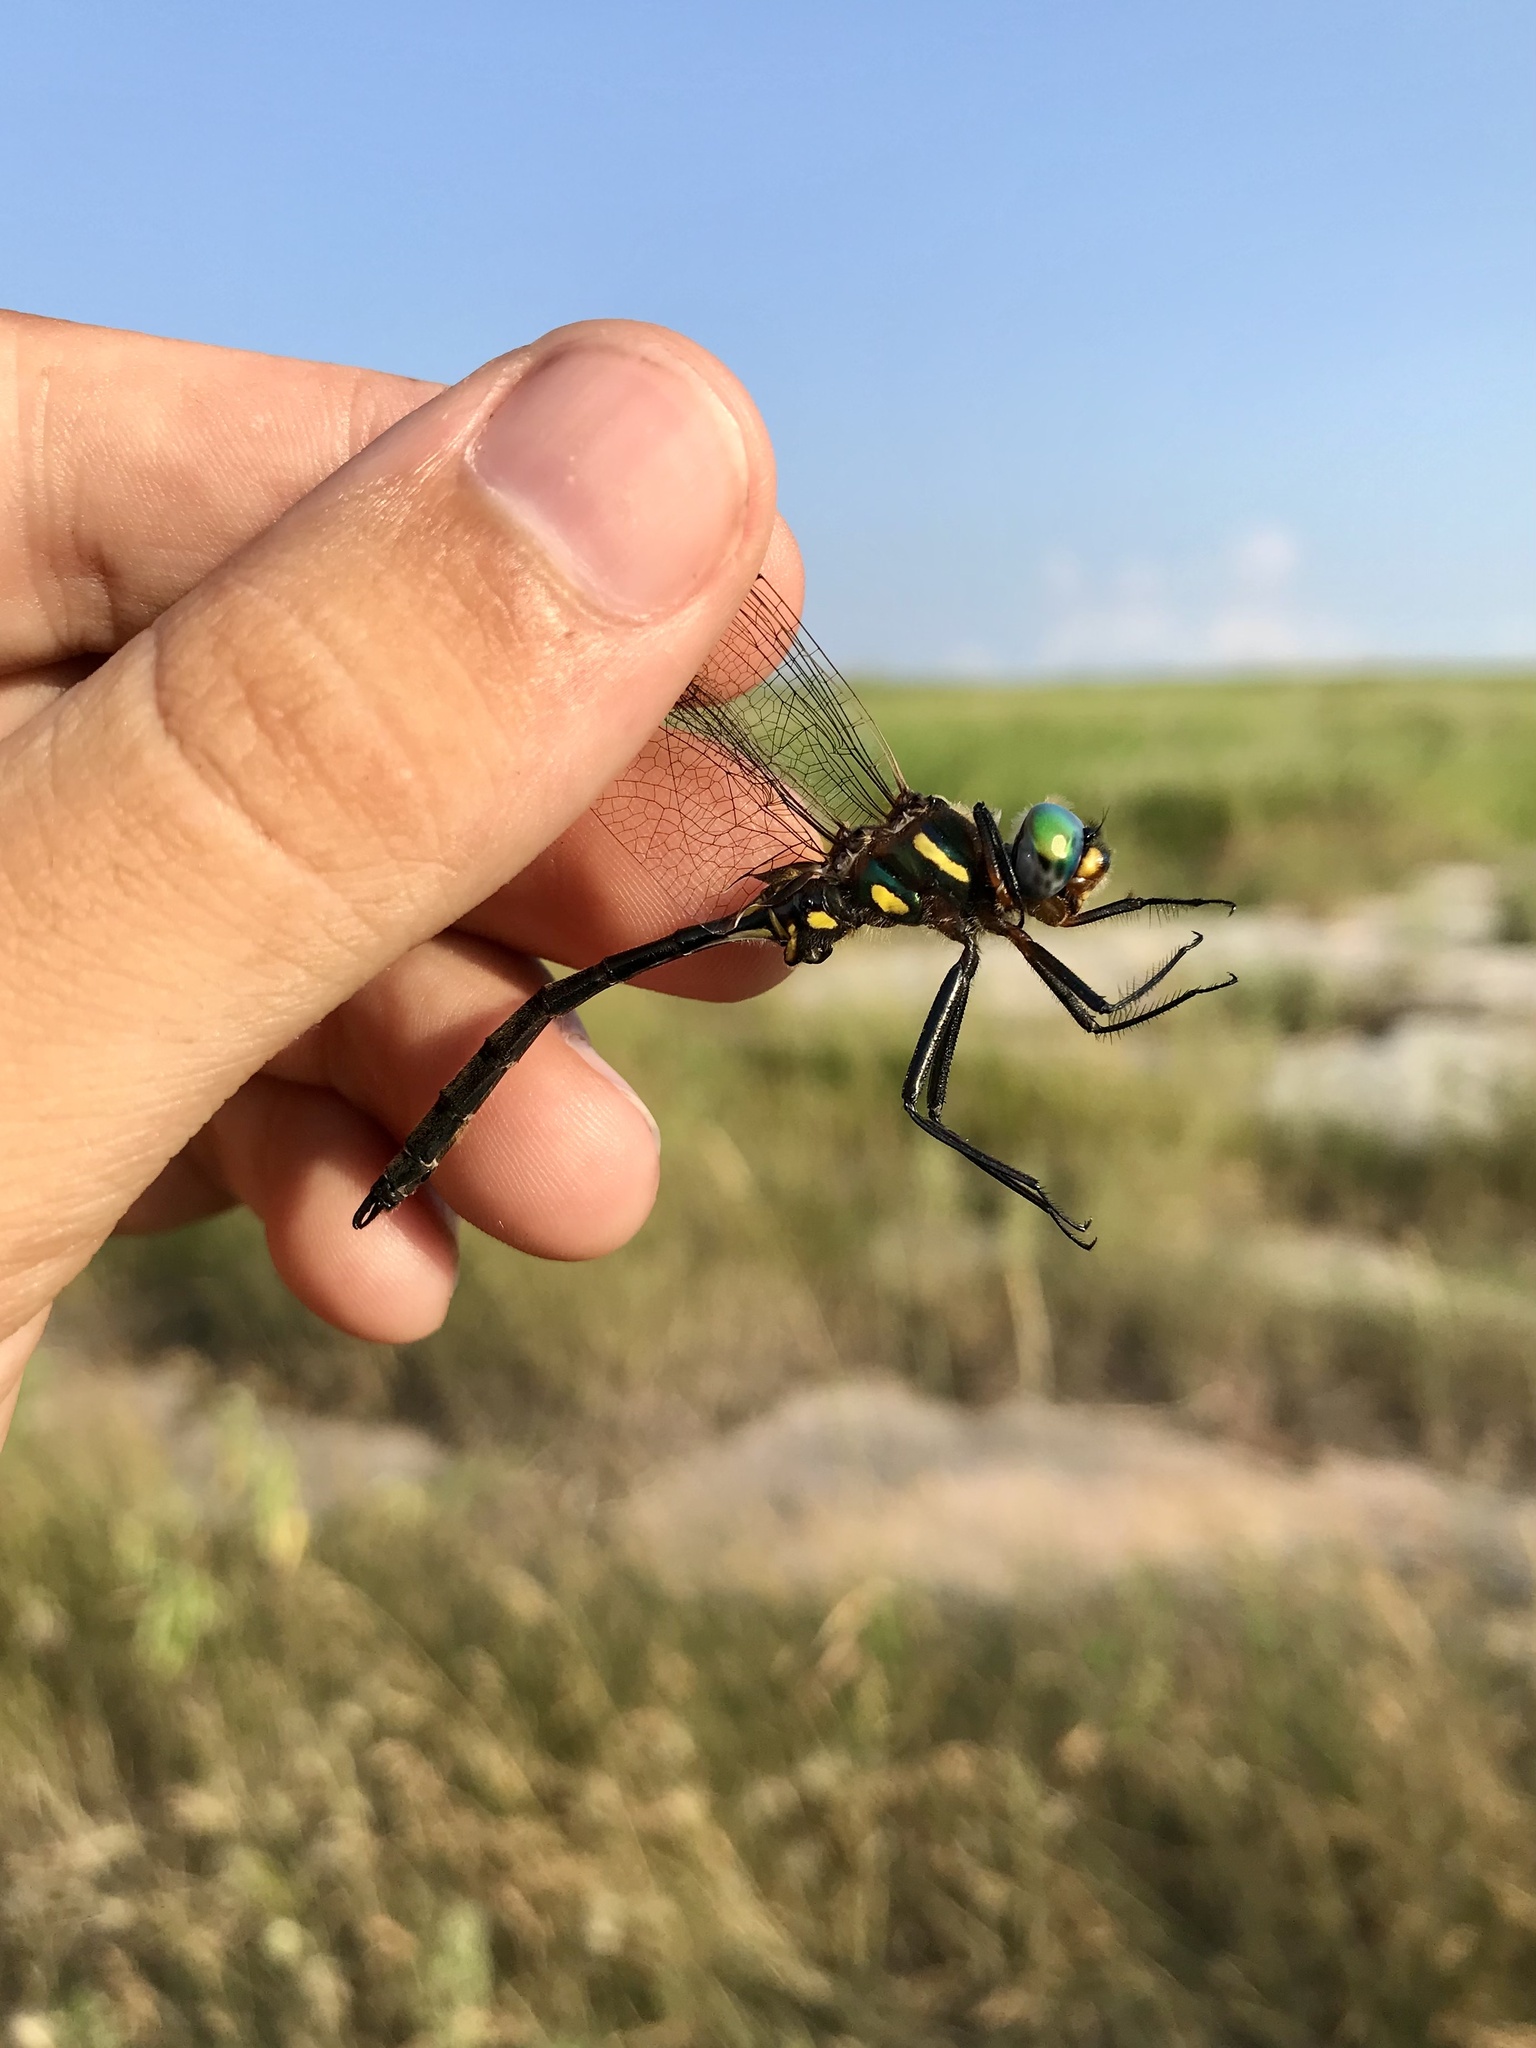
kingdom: Animalia
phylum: Arthropoda
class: Insecta
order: Odonata
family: Corduliidae
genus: Somatochlora
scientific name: Somatochlora ensigera
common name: Plains emerald
